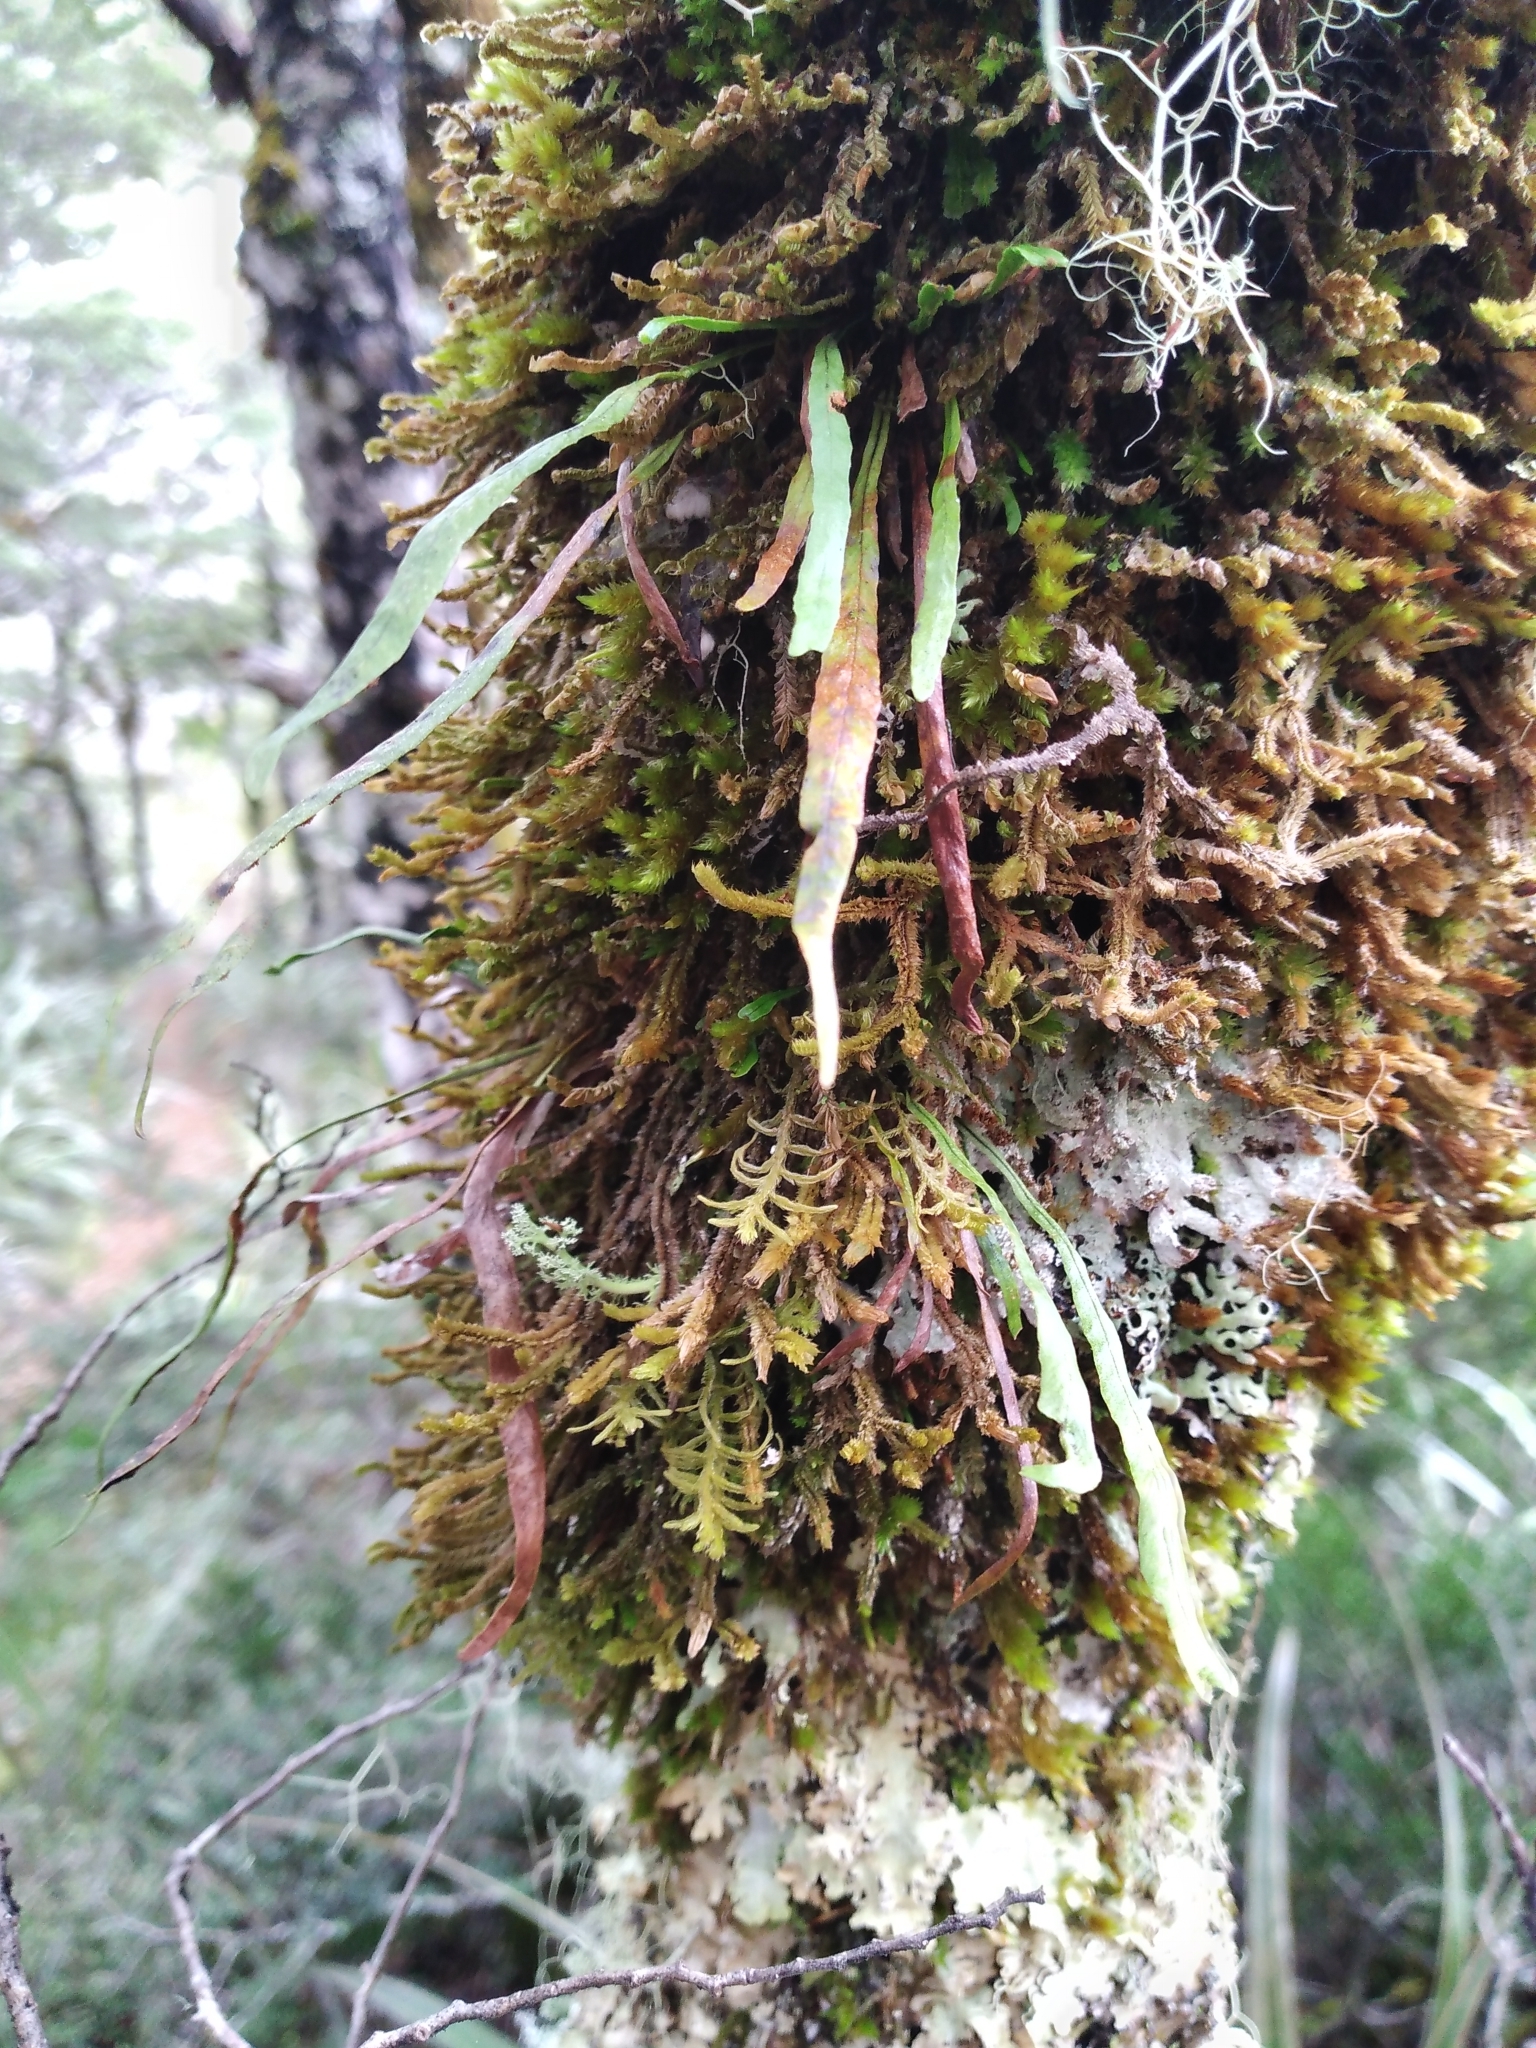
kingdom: Plantae
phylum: Tracheophyta
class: Polypodiopsida
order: Polypodiales
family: Polypodiaceae
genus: Notogrammitis
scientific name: Notogrammitis angustifolia
